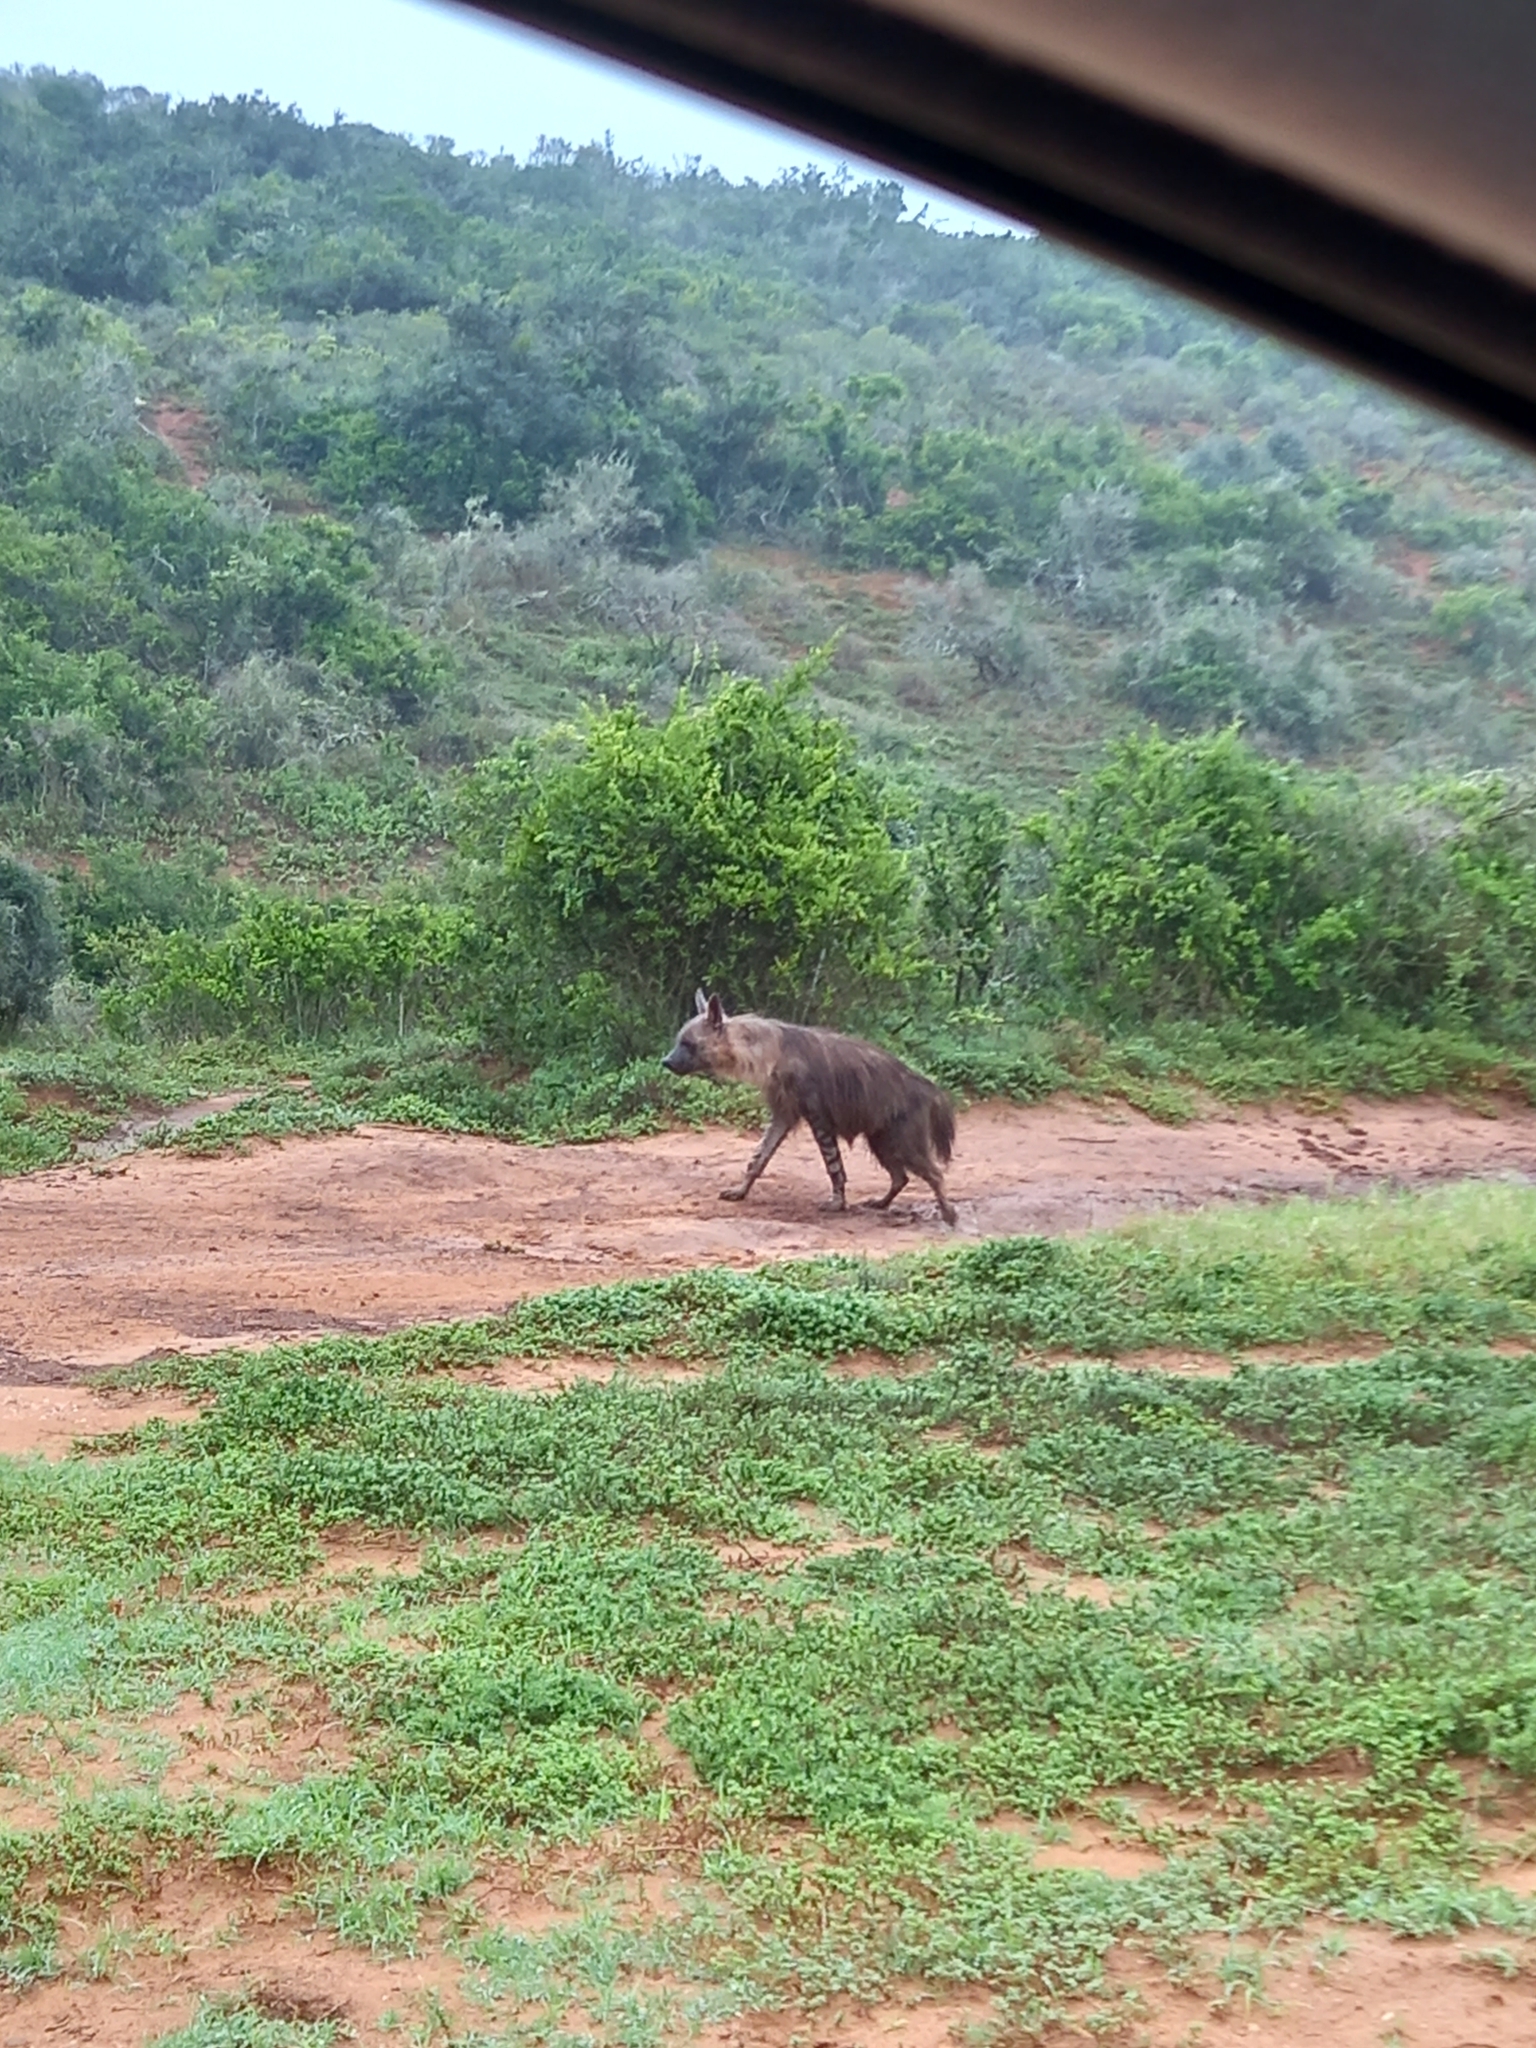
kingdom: Animalia
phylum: Chordata
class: Mammalia
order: Carnivora
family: Hyaenidae
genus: Hyaena
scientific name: Hyaena brunnea
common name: Brown hyena
